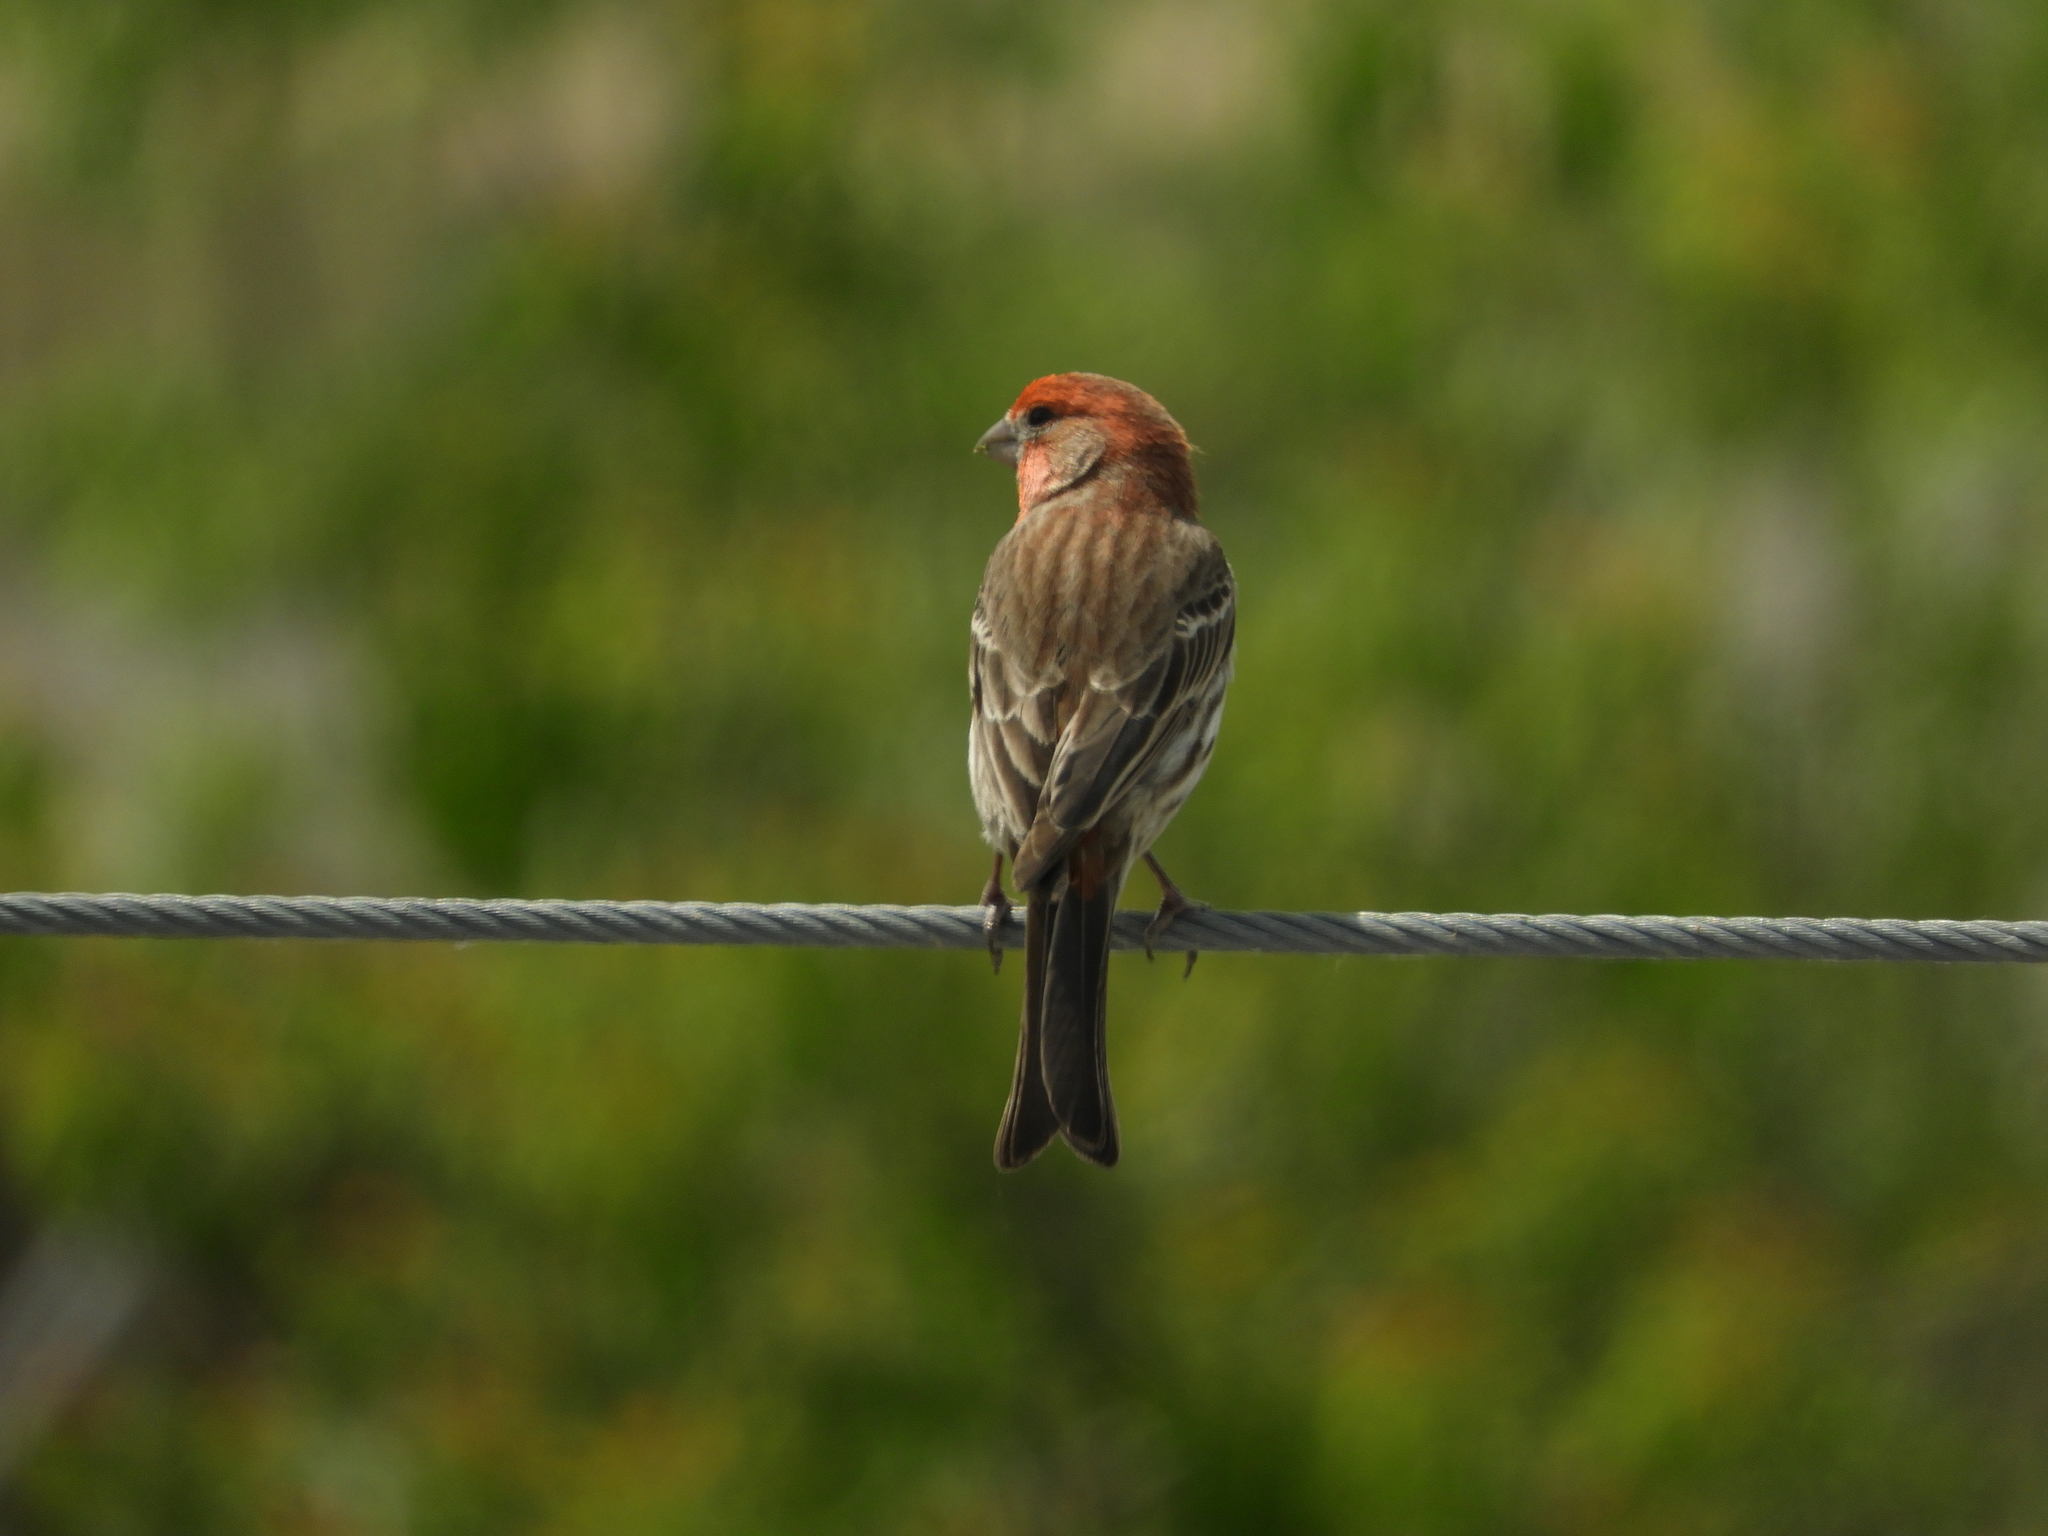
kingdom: Animalia
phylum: Chordata
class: Aves
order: Passeriformes
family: Fringillidae
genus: Haemorhous
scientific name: Haemorhous mexicanus
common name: House finch
